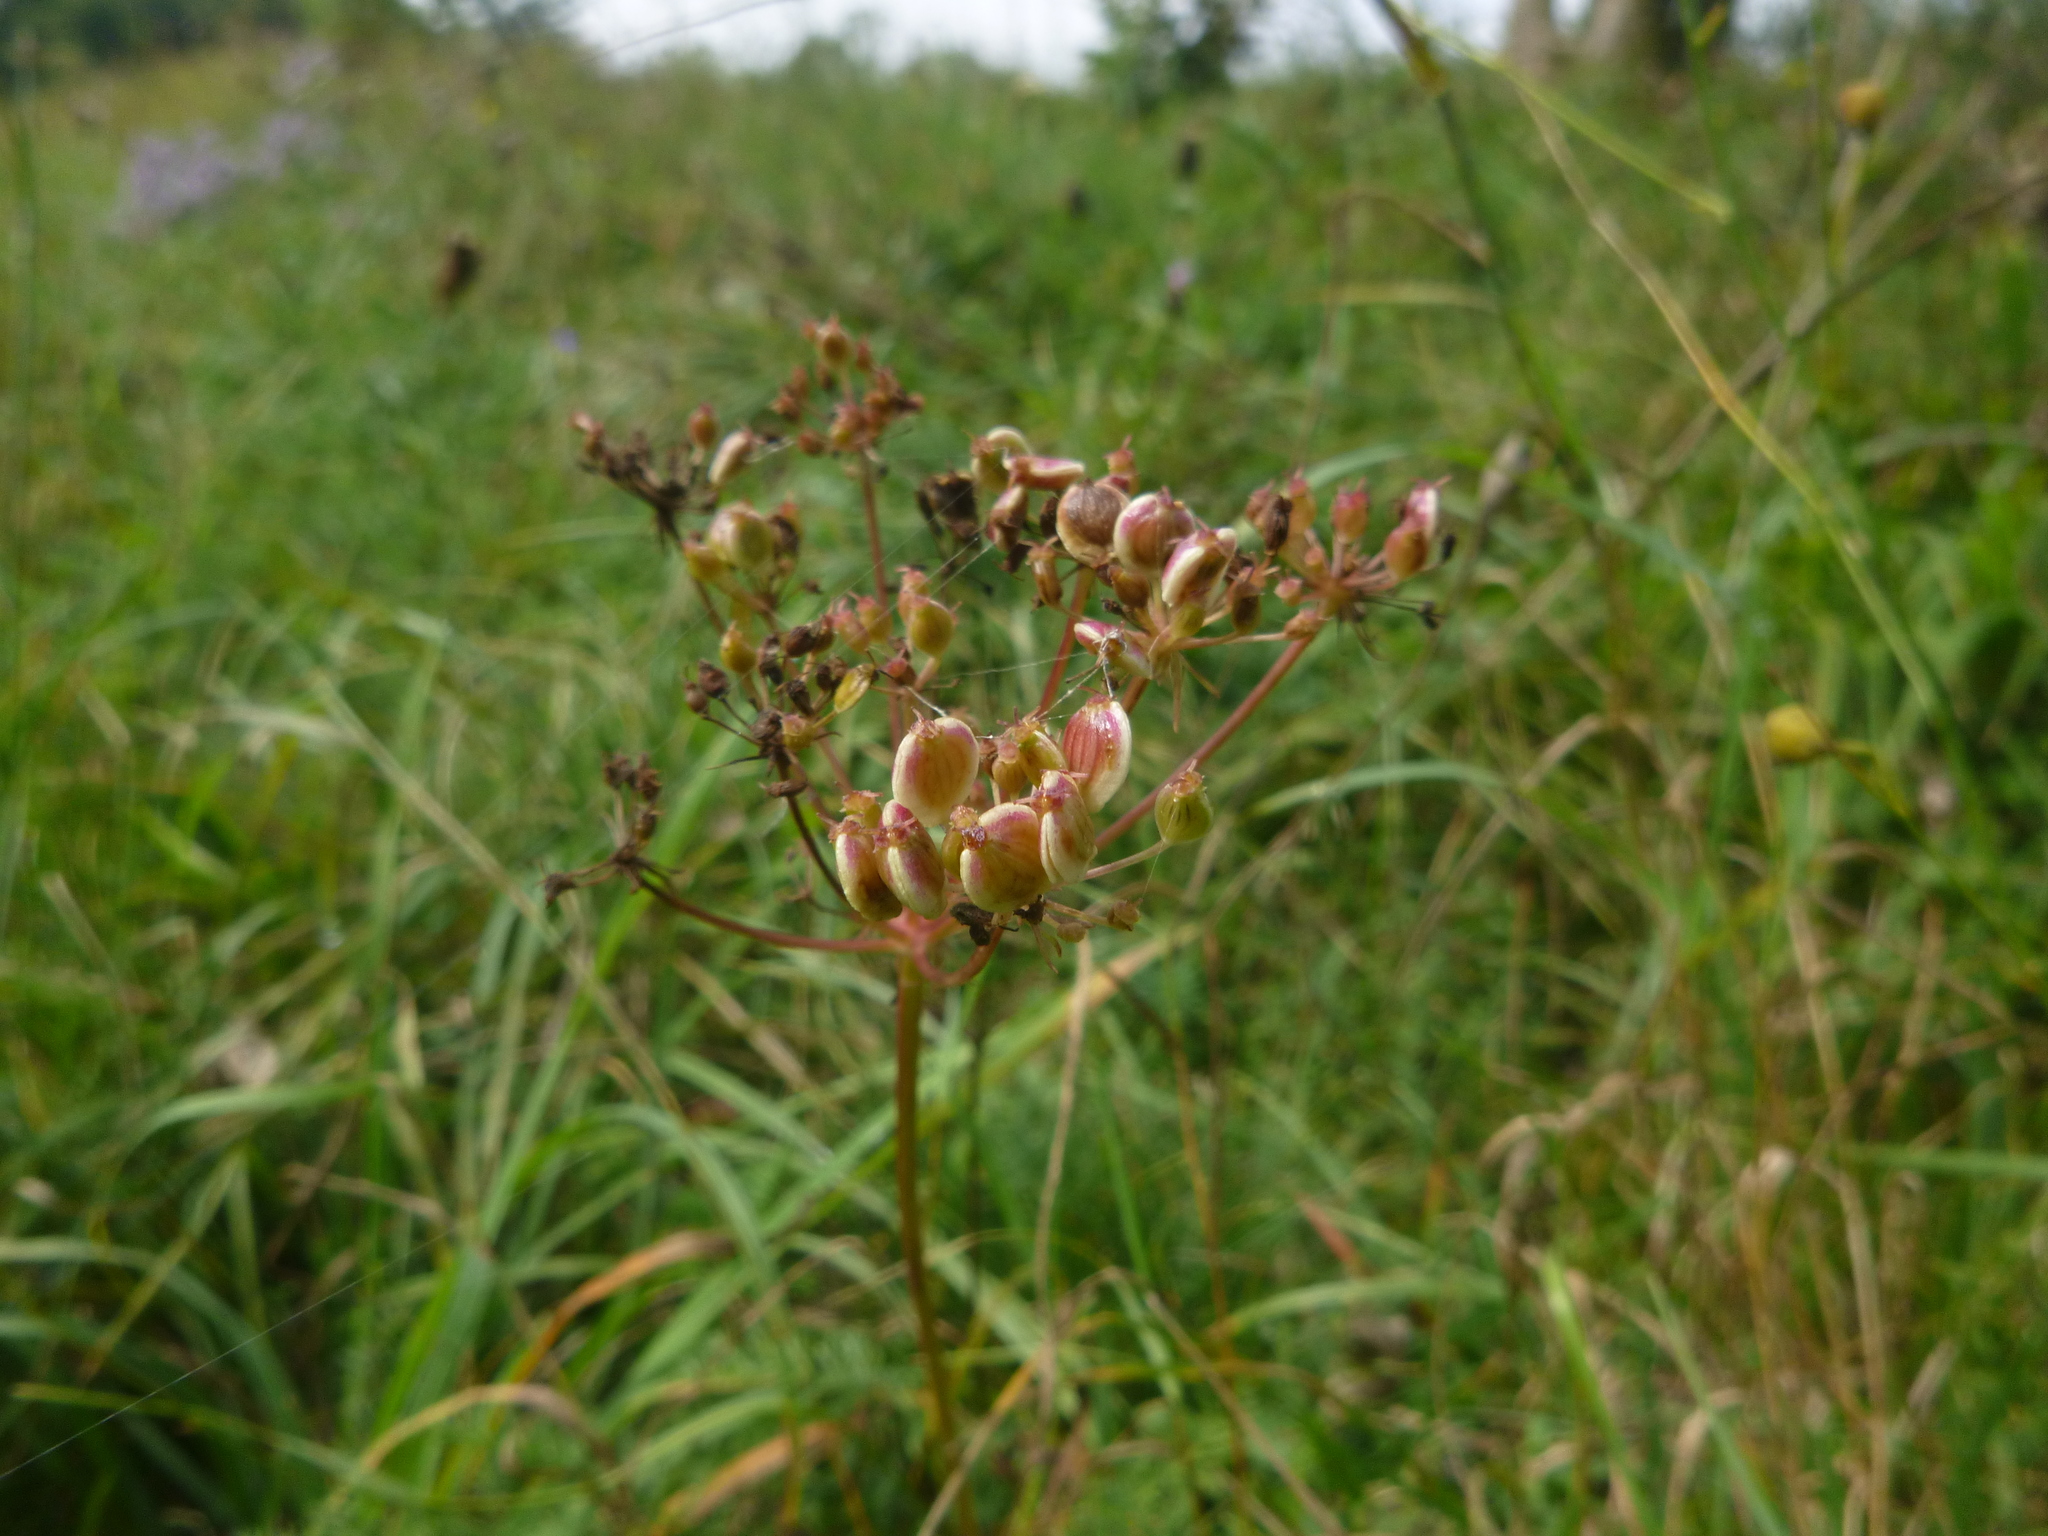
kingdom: Plantae
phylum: Tracheophyta
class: Magnoliopsida
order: Apiales
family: Apiaceae
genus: Oreoselinum
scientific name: Oreoselinum nigrum
